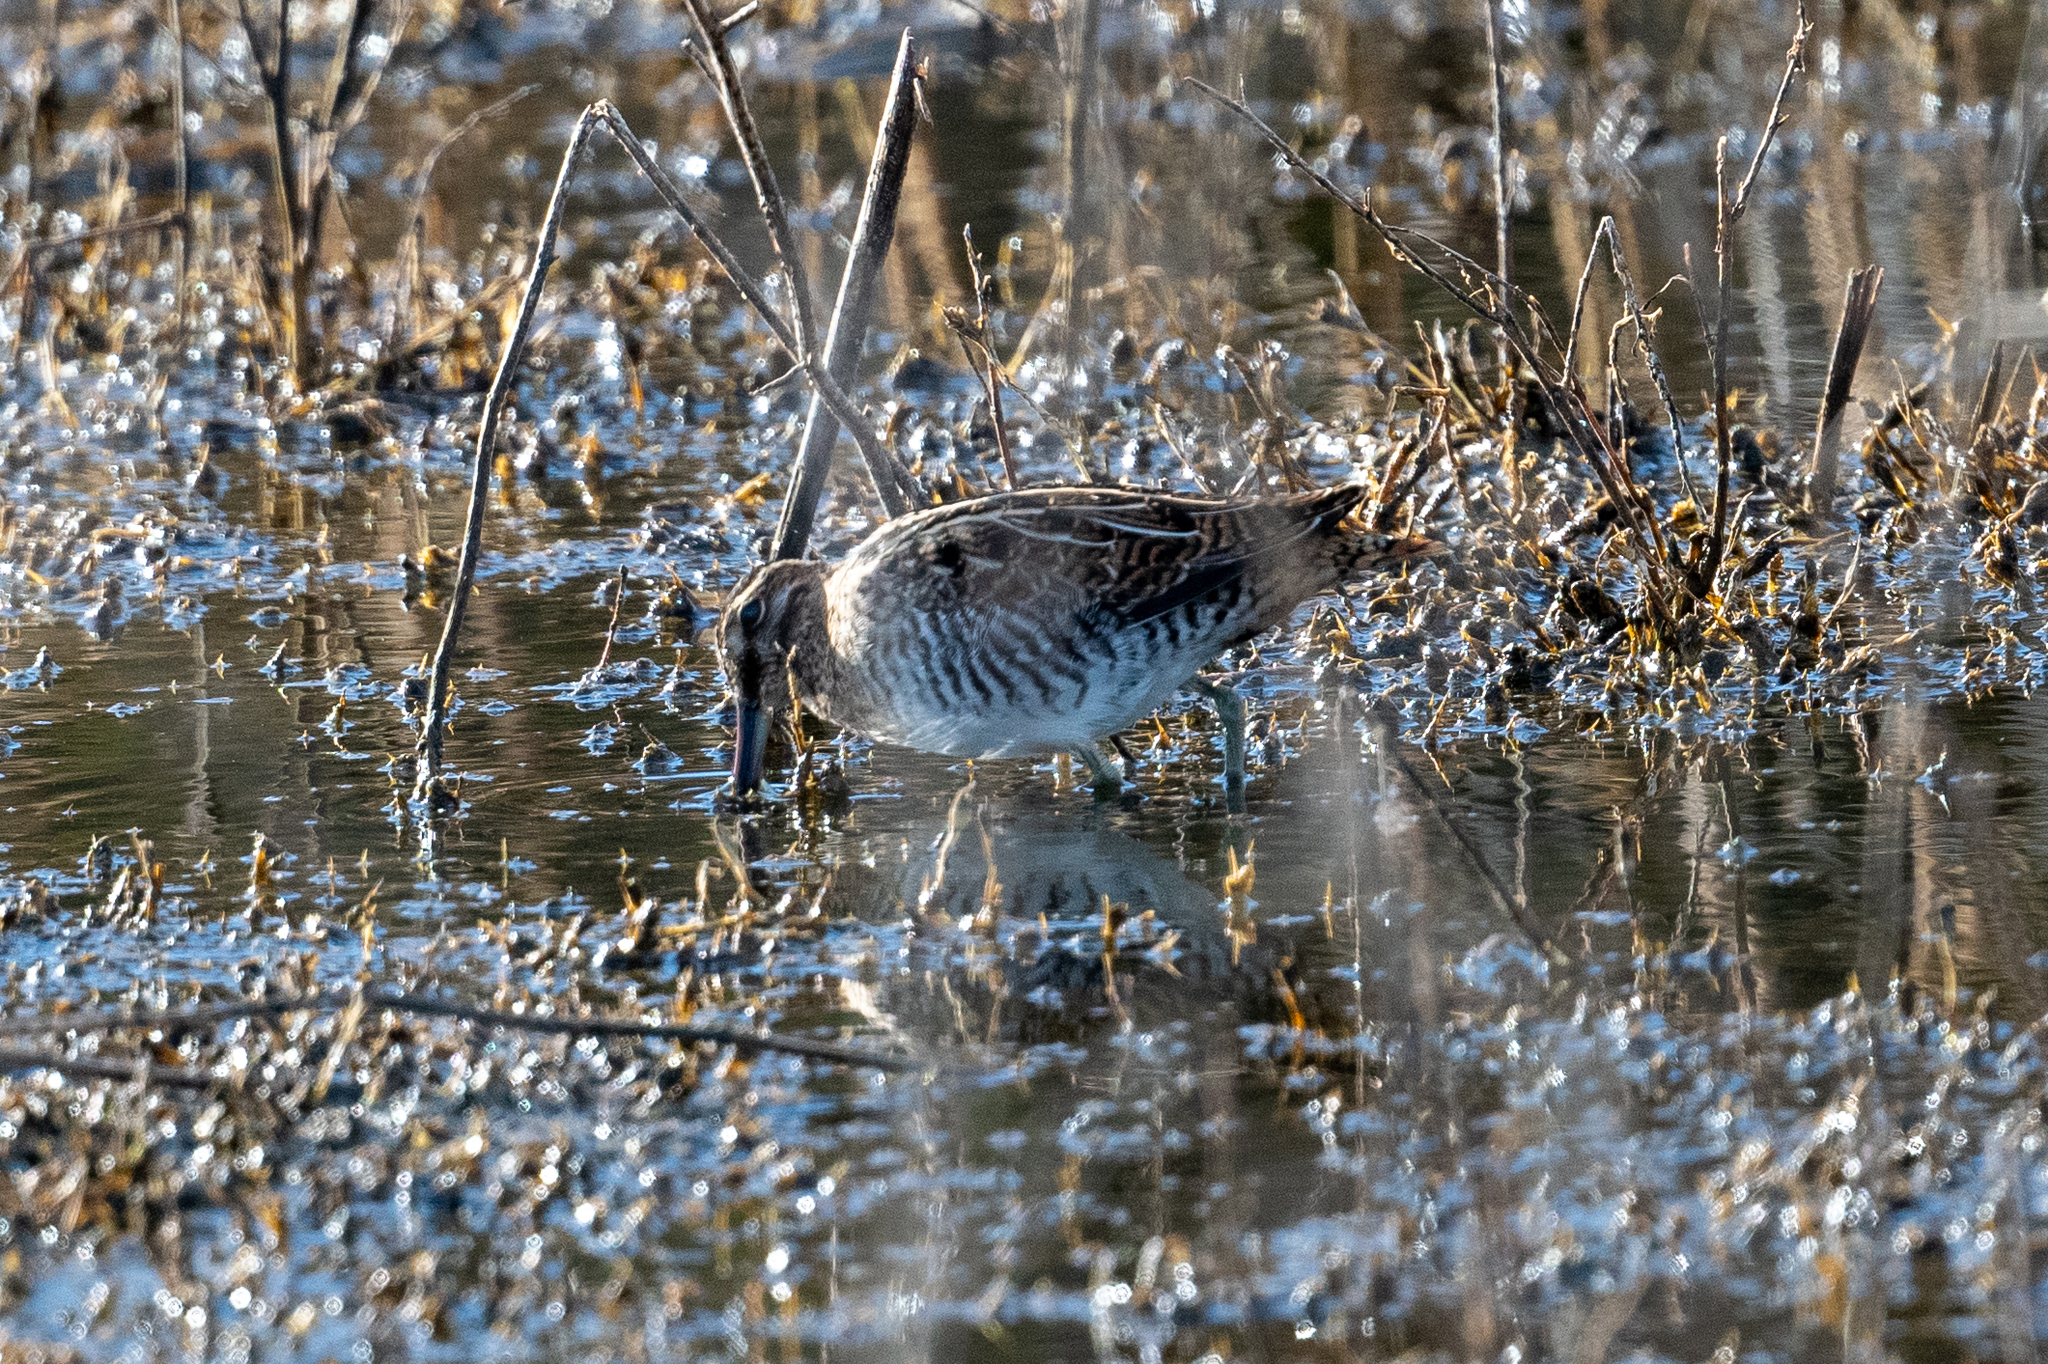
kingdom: Animalia
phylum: Chordata
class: Aves
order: Charadriiformes
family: Scolopacidae
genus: Gallinago
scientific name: Gallinago delicata
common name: Wilson's snipe
